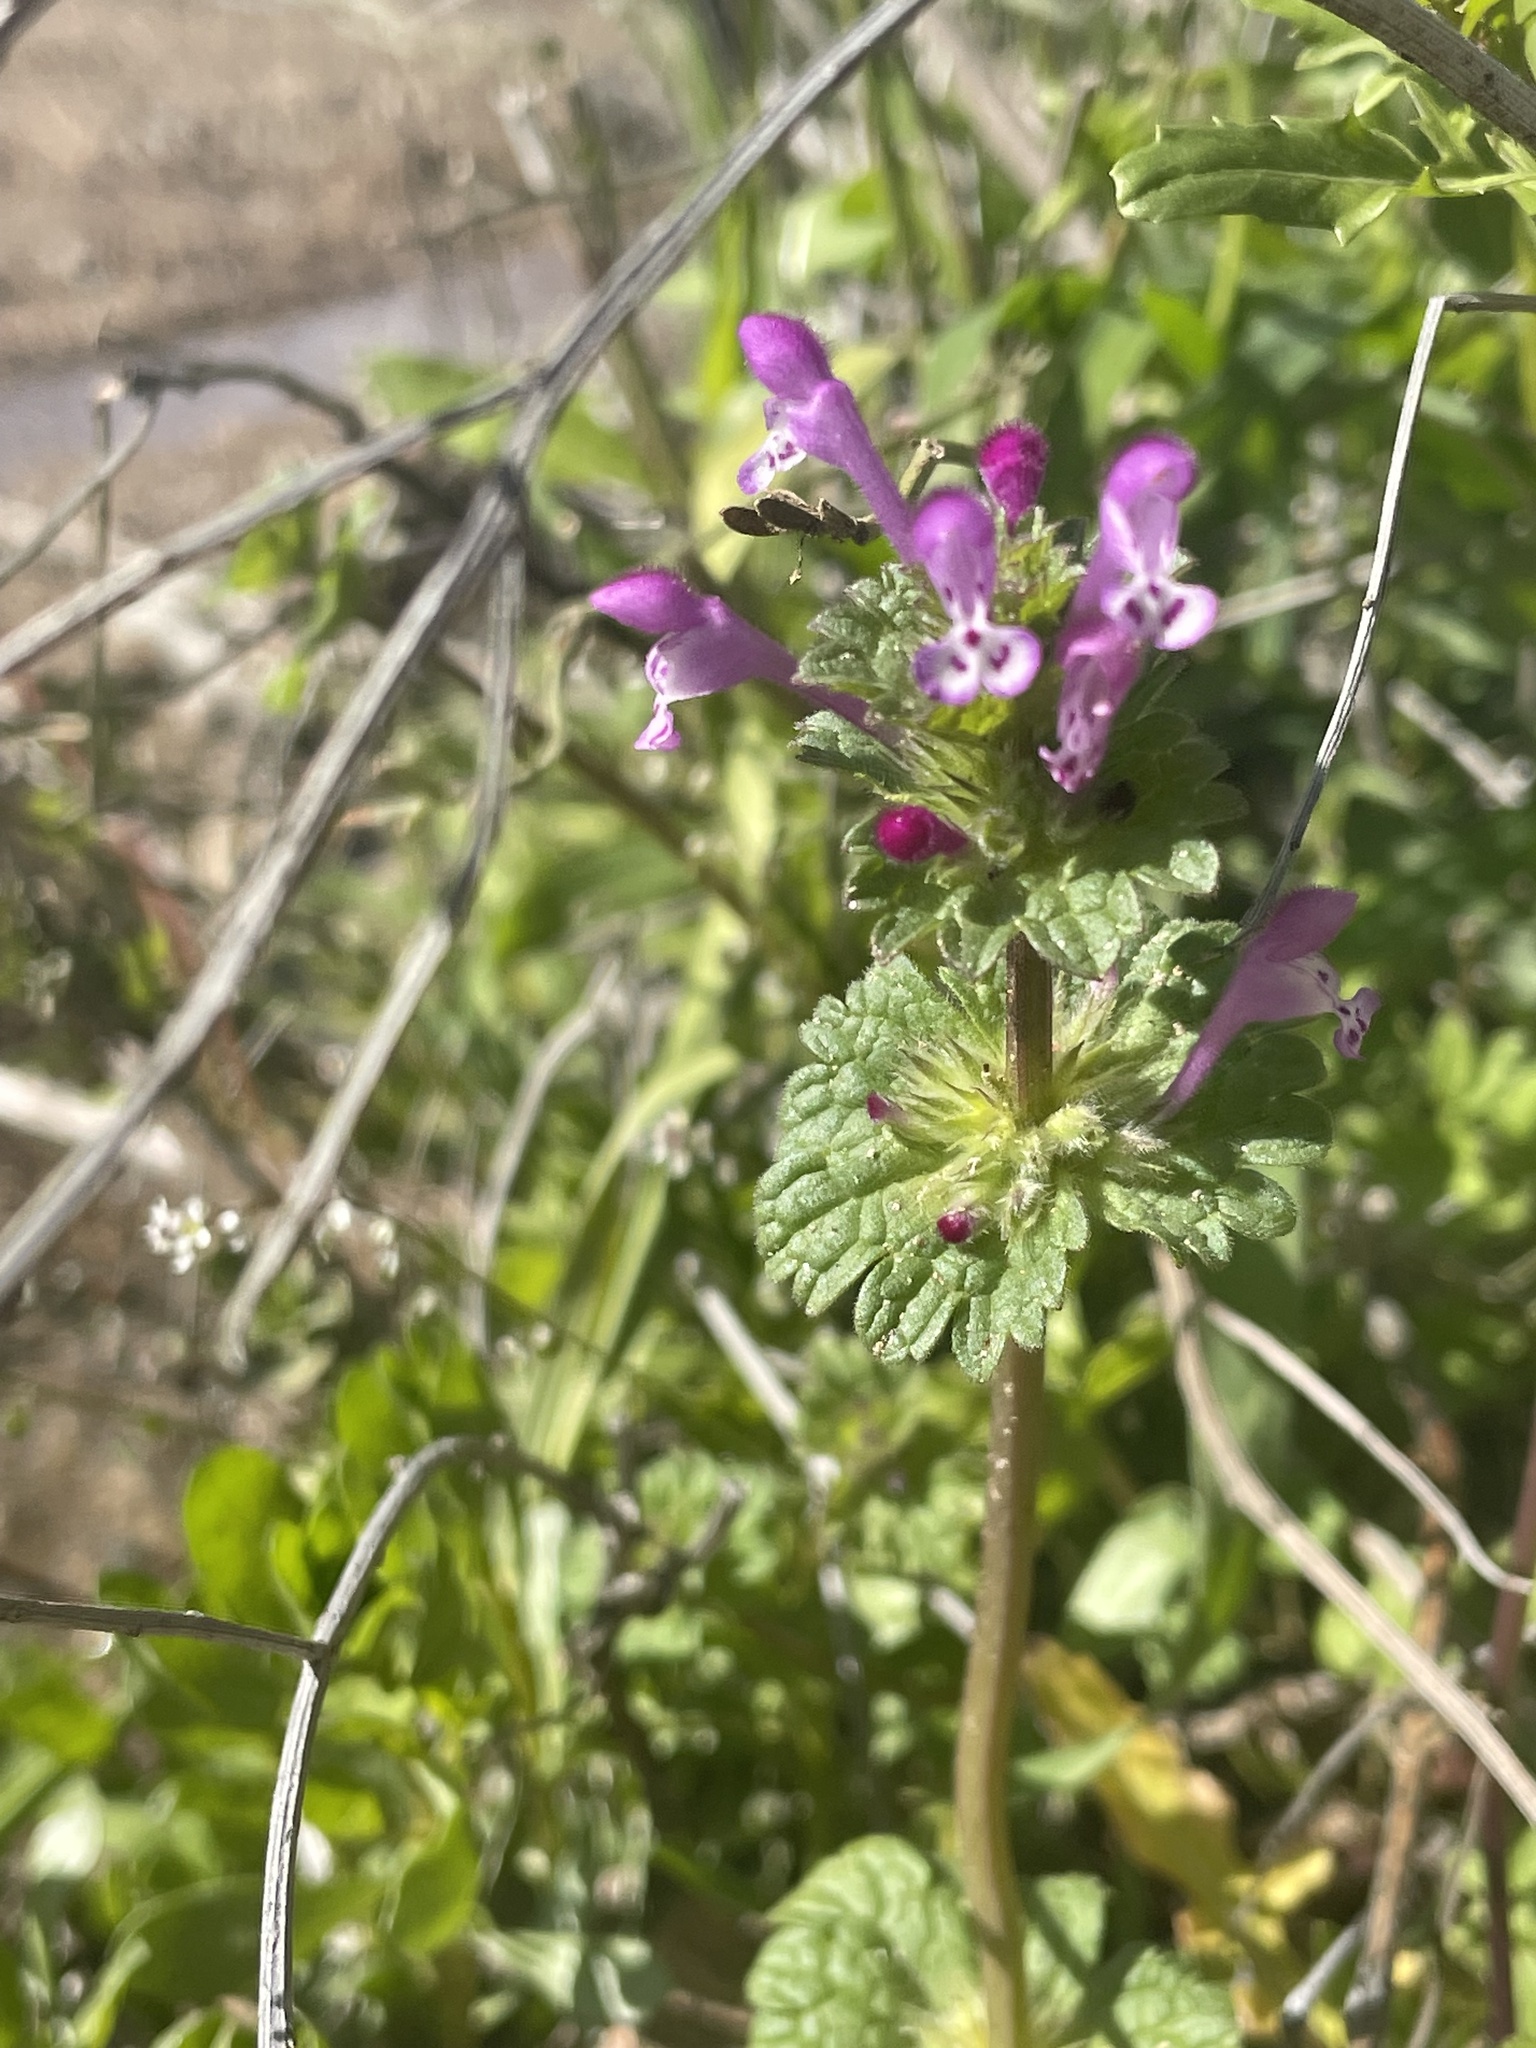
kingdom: Plantae
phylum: Tracheophyta
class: Magnoliopsida
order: Lamiales
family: Lamiaceae
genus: Lamium
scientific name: Lamium amplexicaule
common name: Henbit dead-nettle
